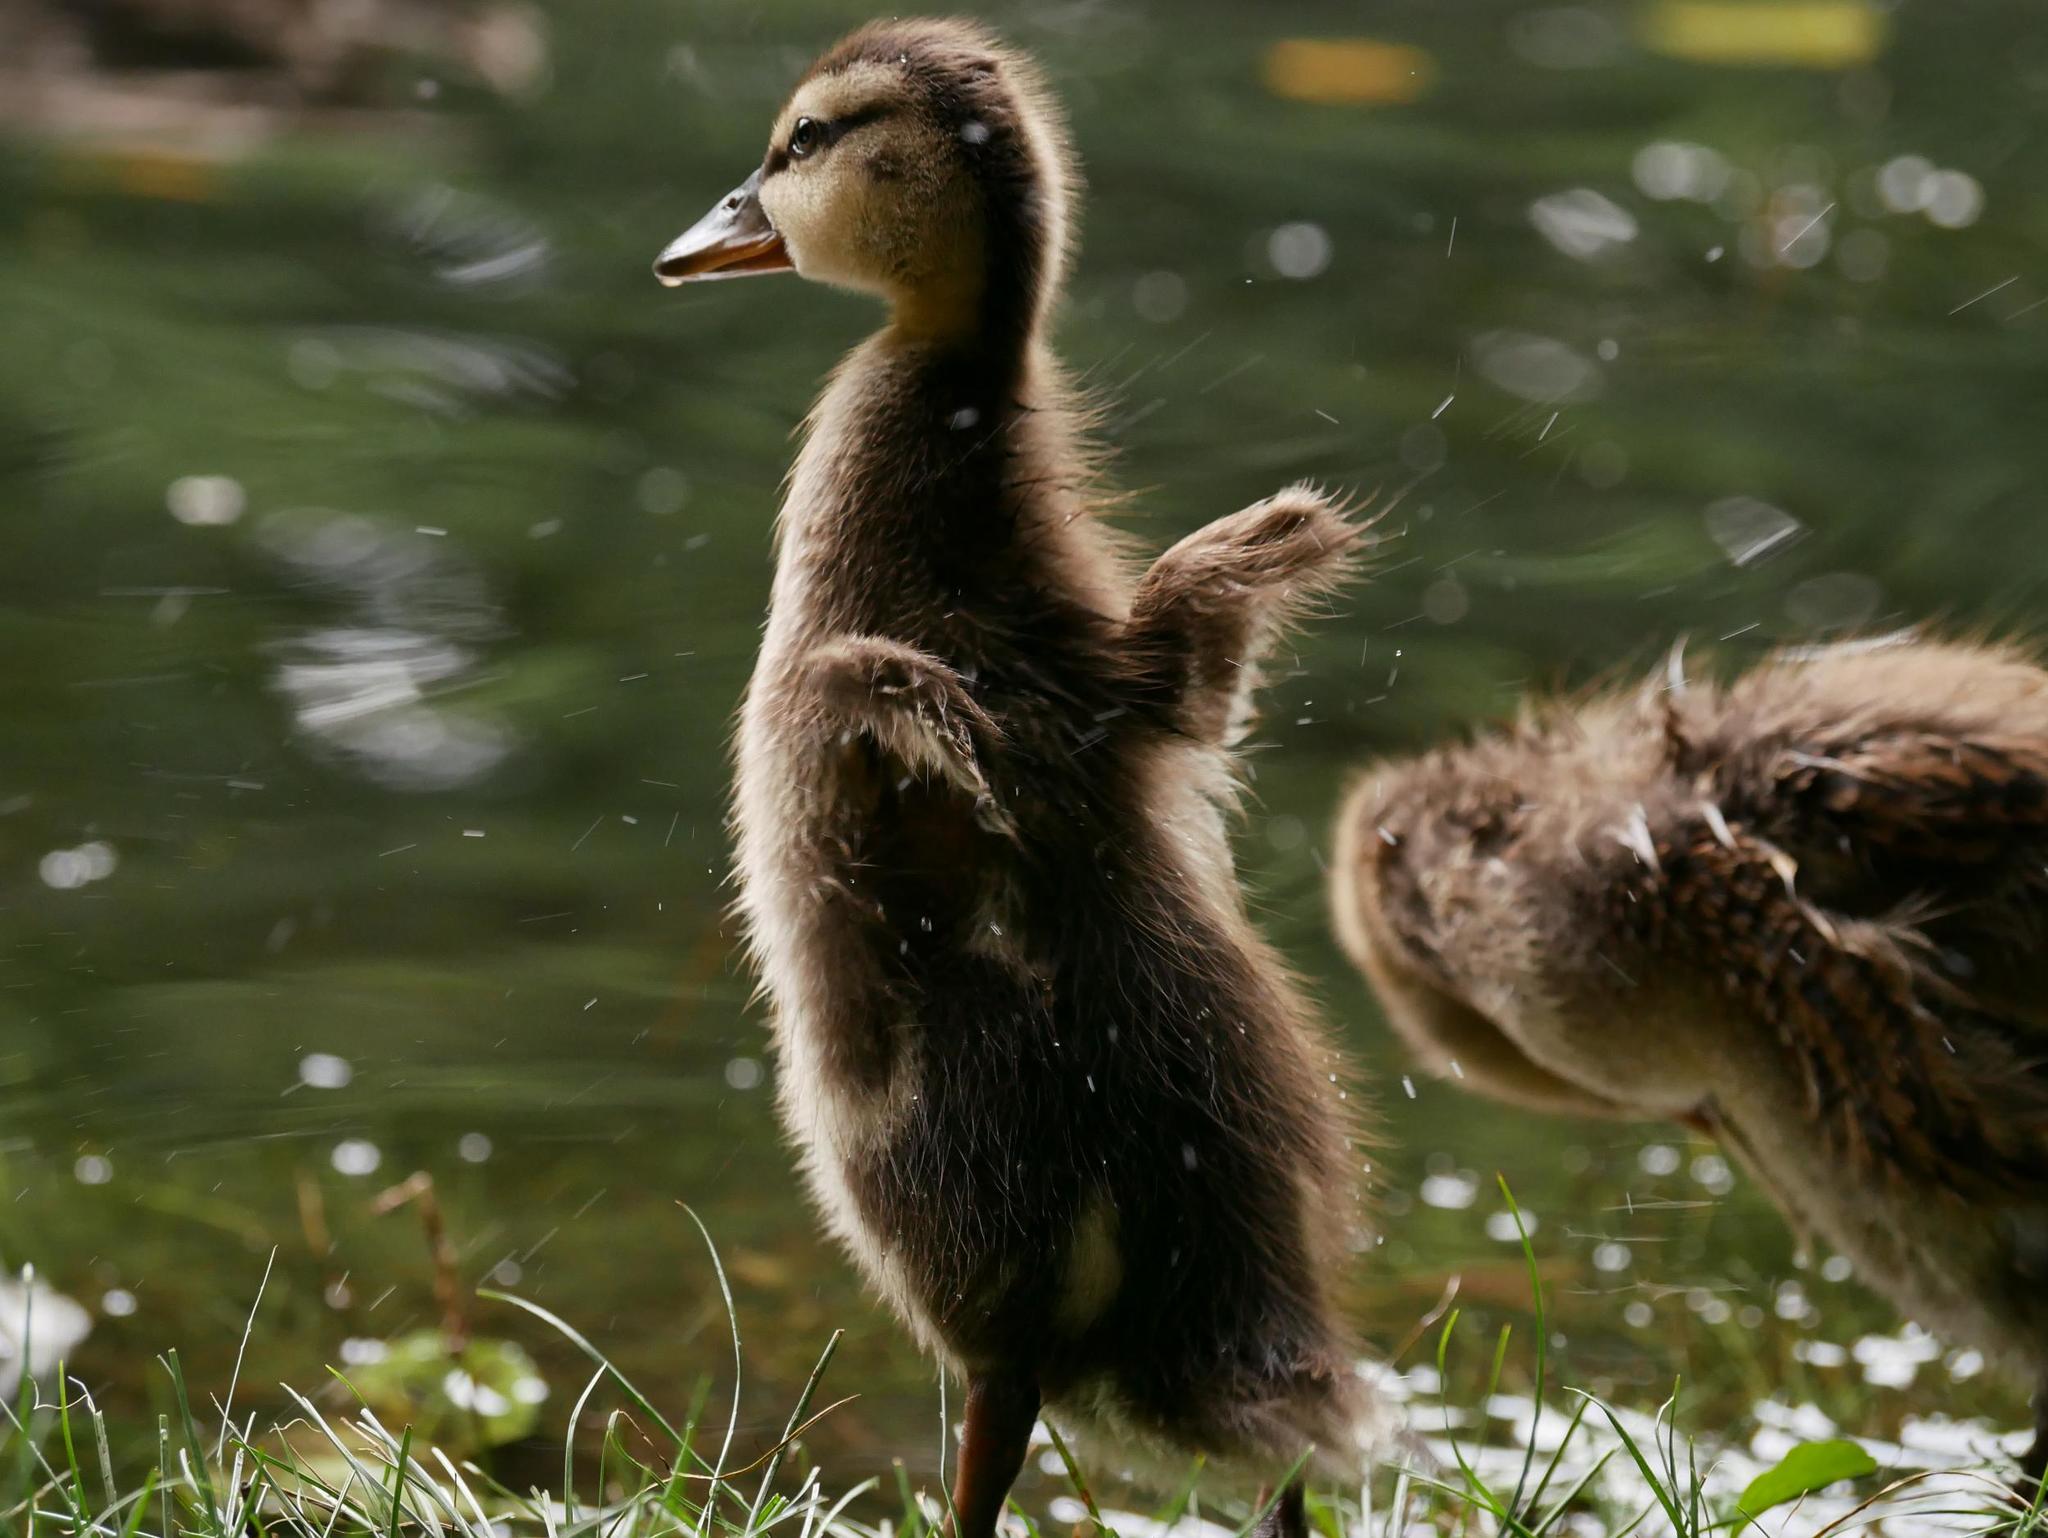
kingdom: Animalia
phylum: Chordata
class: Aves
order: Anseriformes
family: Anatidae
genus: Anas
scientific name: Anas platyrhynchos
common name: Mallard
